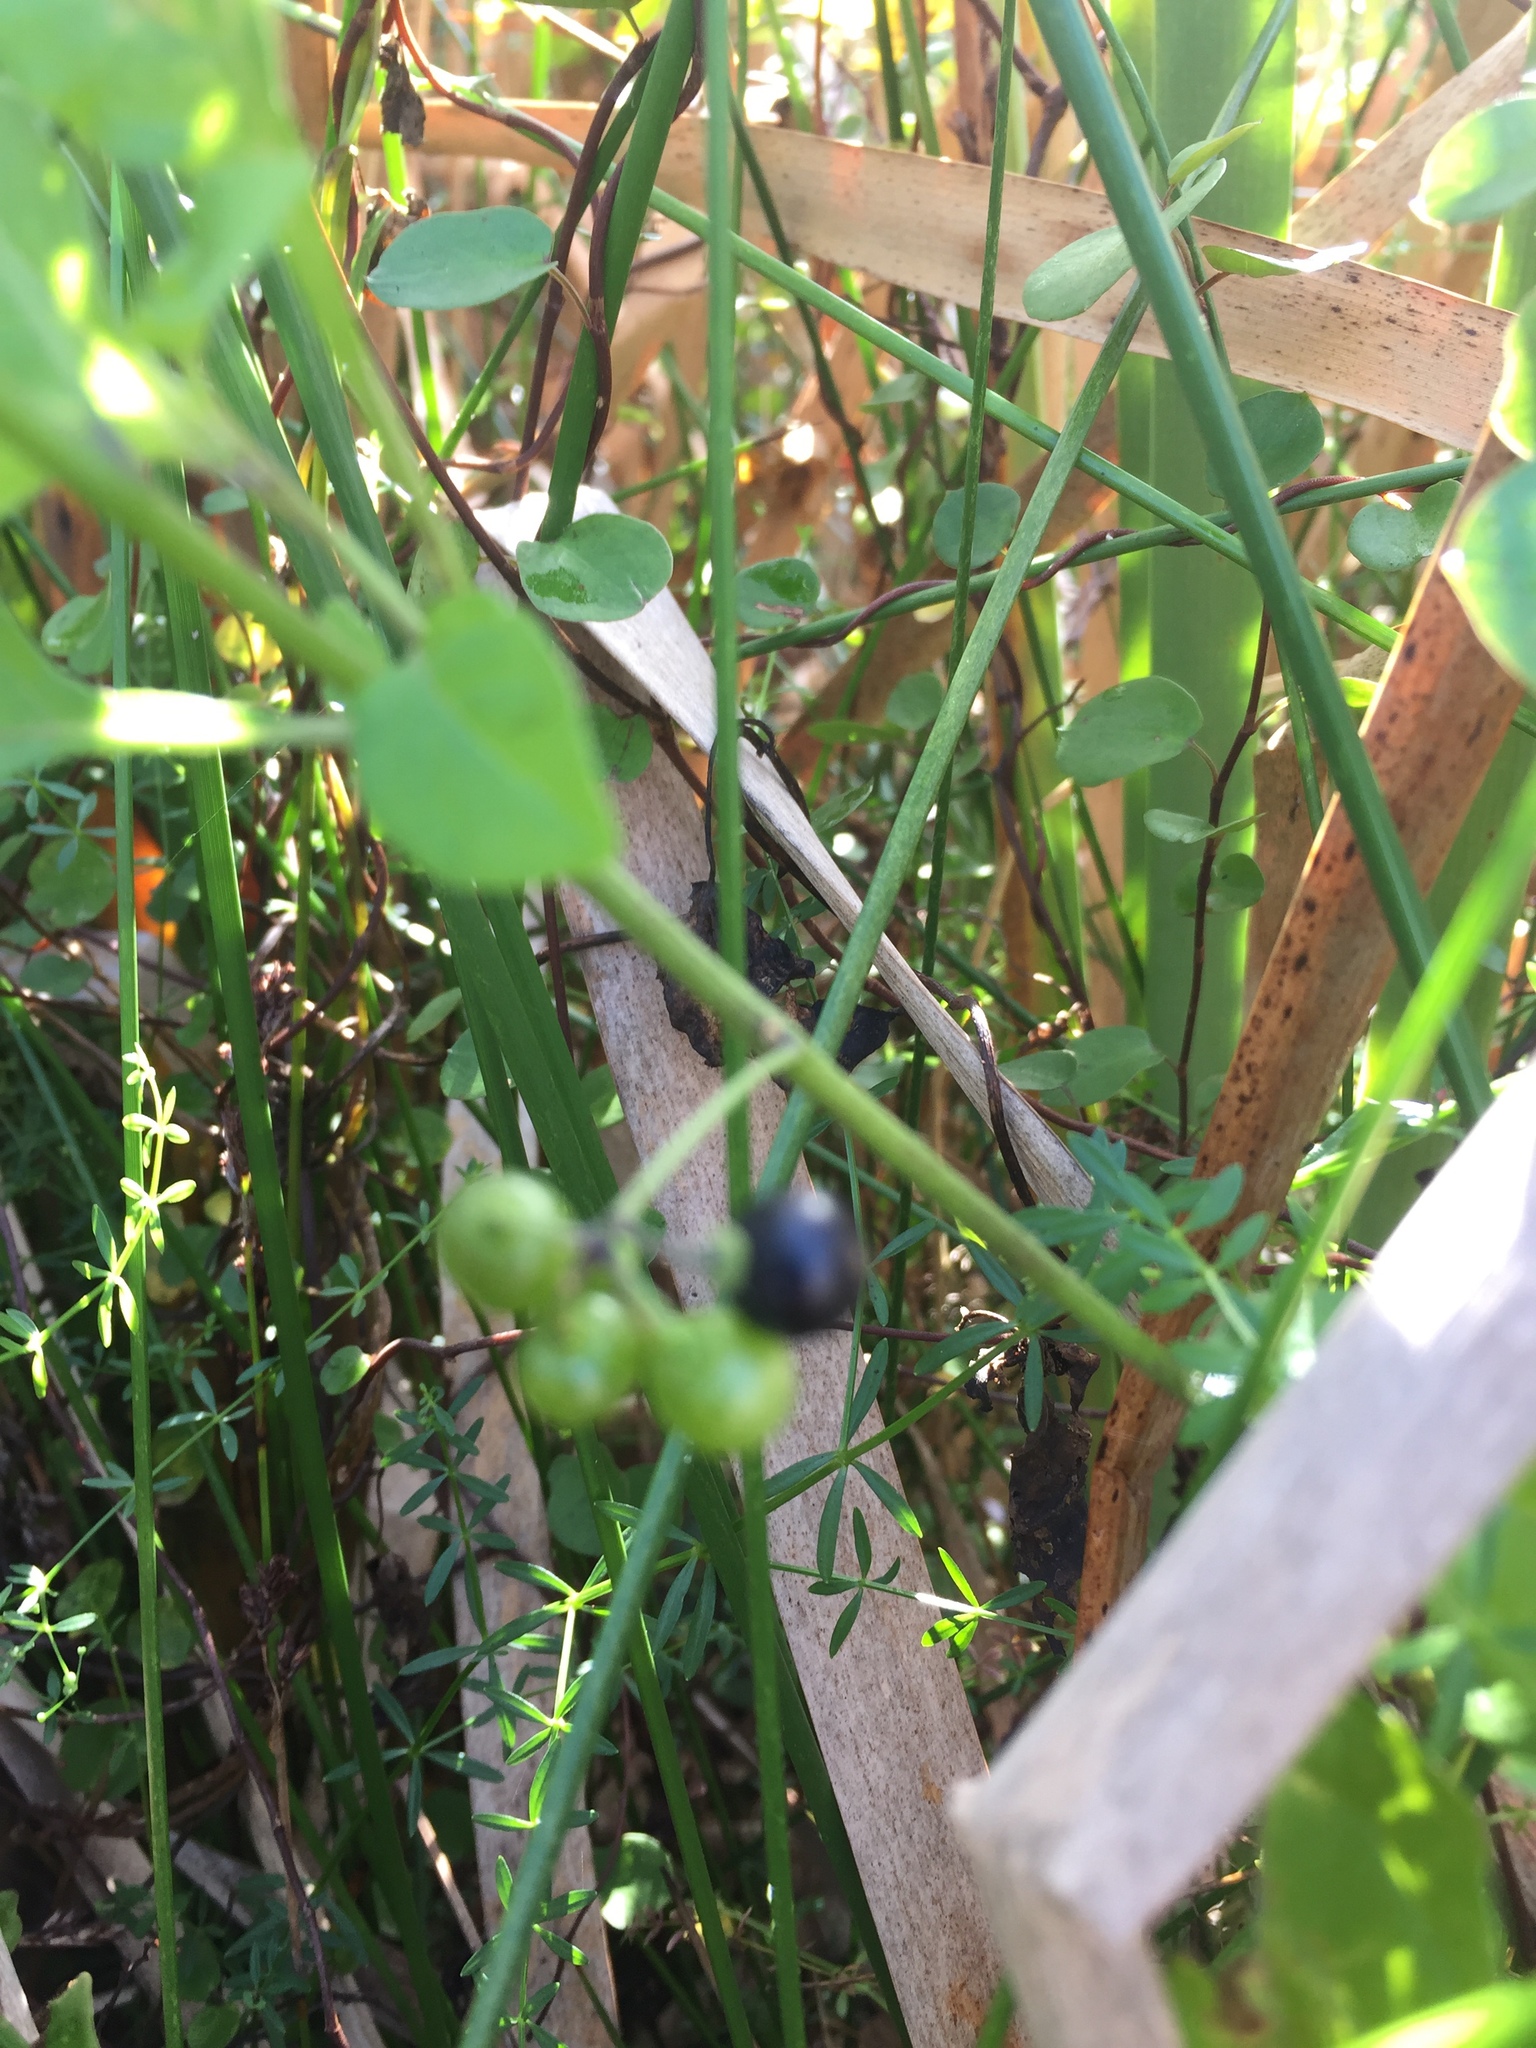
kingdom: Plantae
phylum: Tracheophyta
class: Magnoliopsida
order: Solanales
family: Solanaceae
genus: Solanum
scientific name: Solanum americanum
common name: American black nightshade
